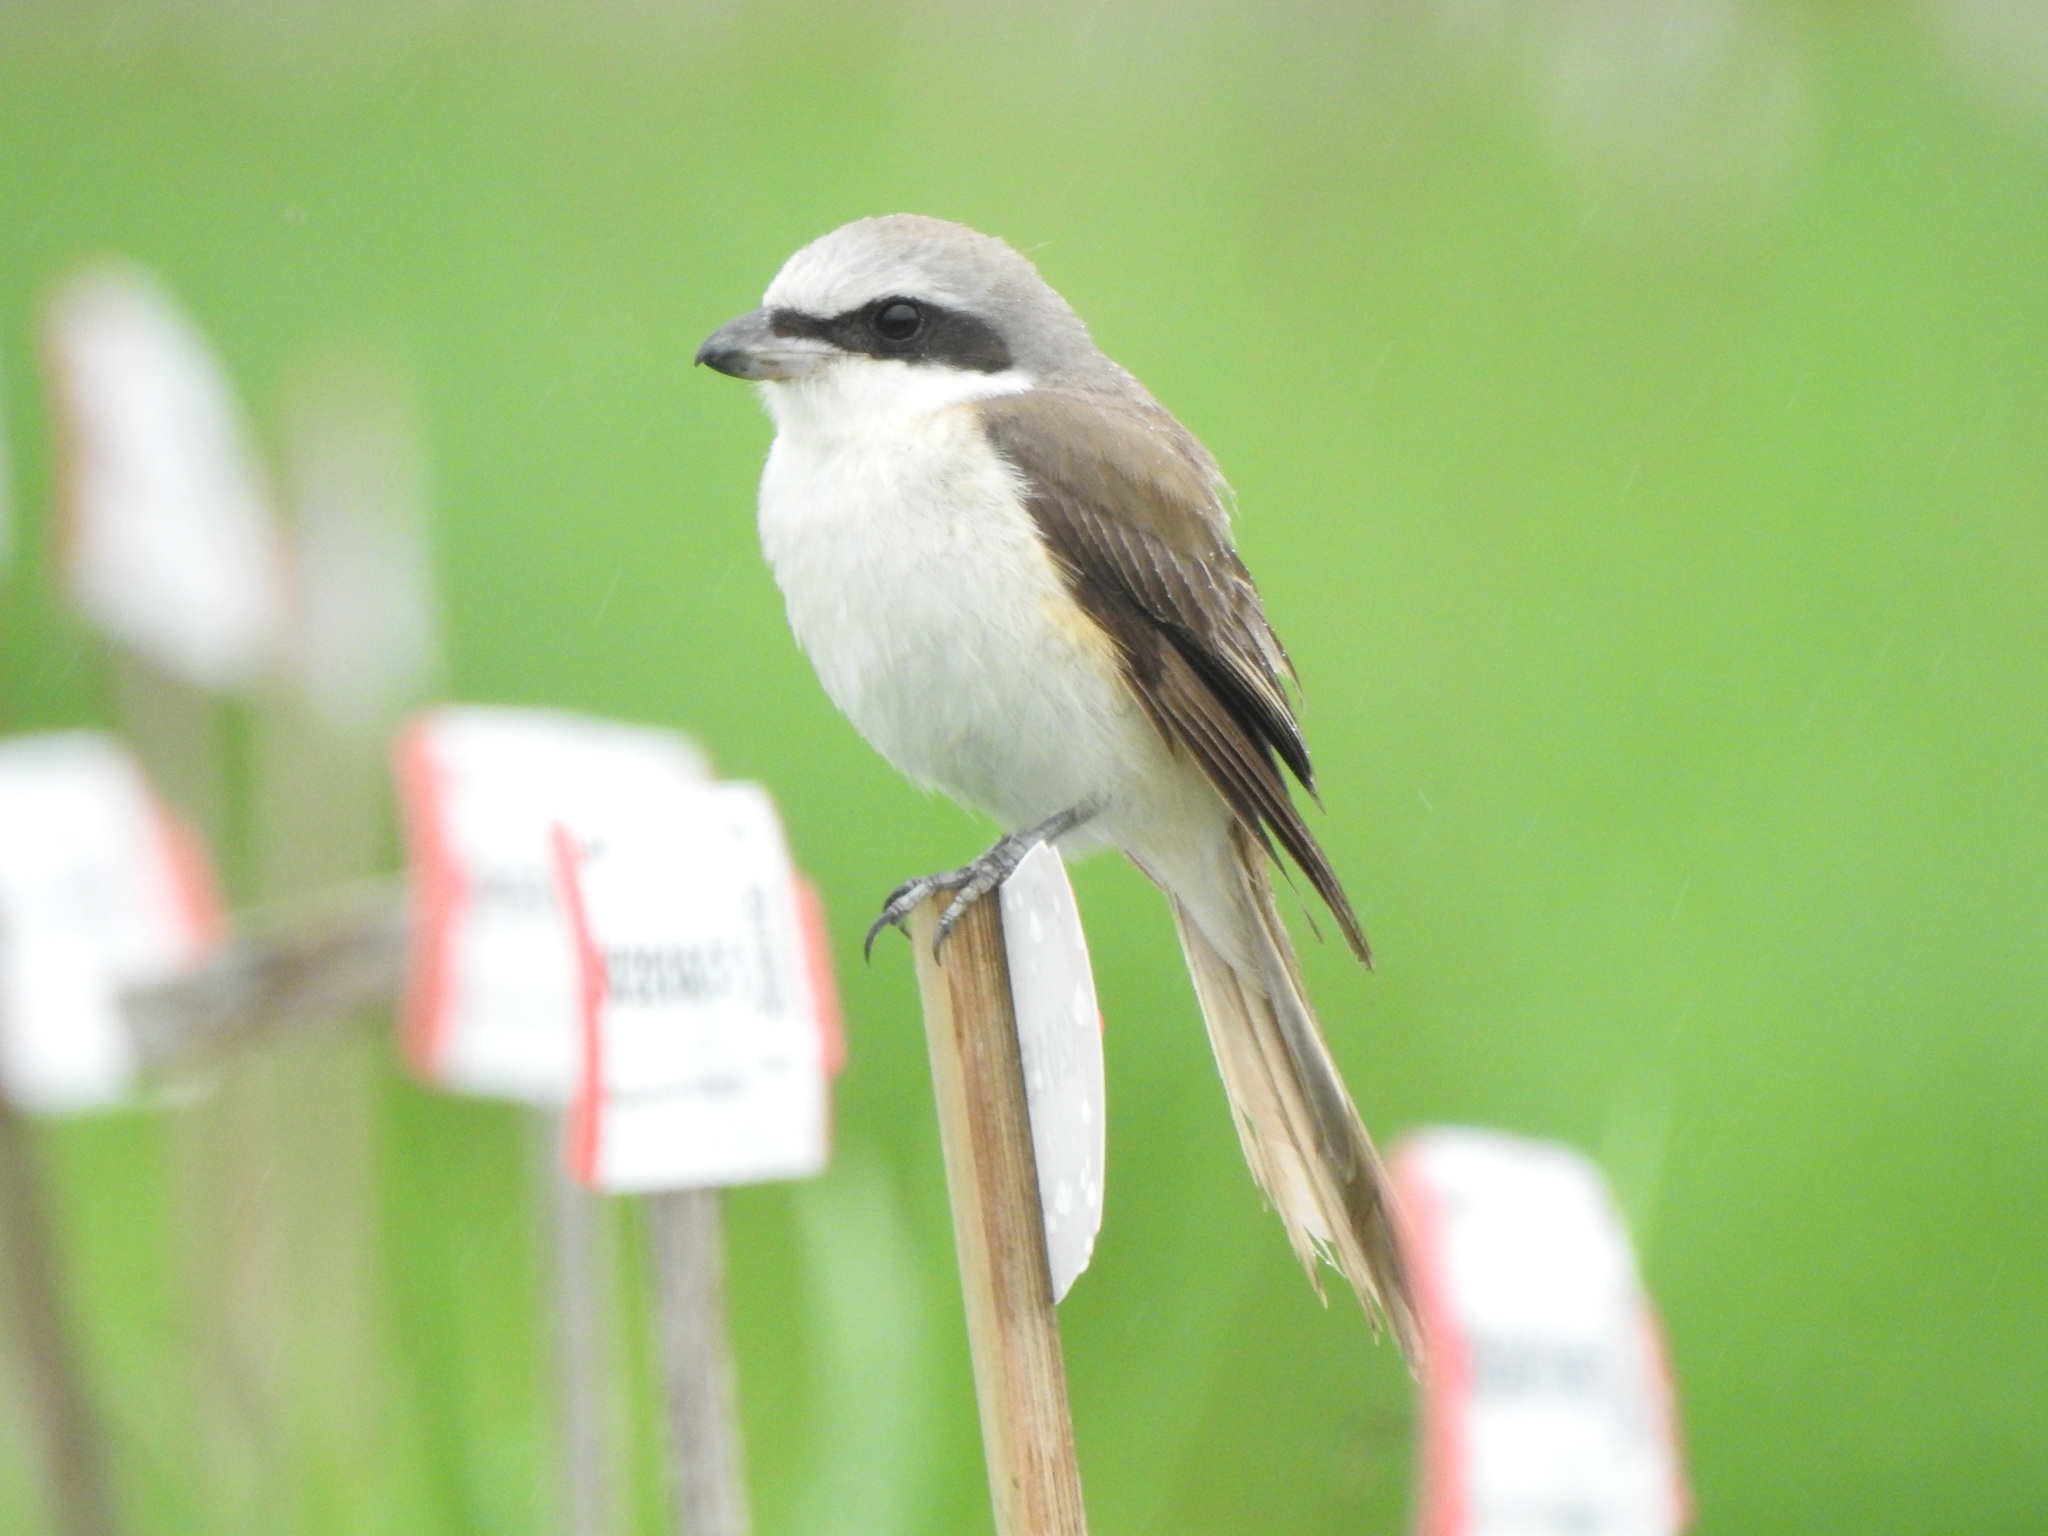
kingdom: Animalia
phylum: Chordata
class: Aves
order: Passeriformes
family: Laniidae
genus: Lanius
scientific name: Lanius cristatus
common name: Brown shrike
